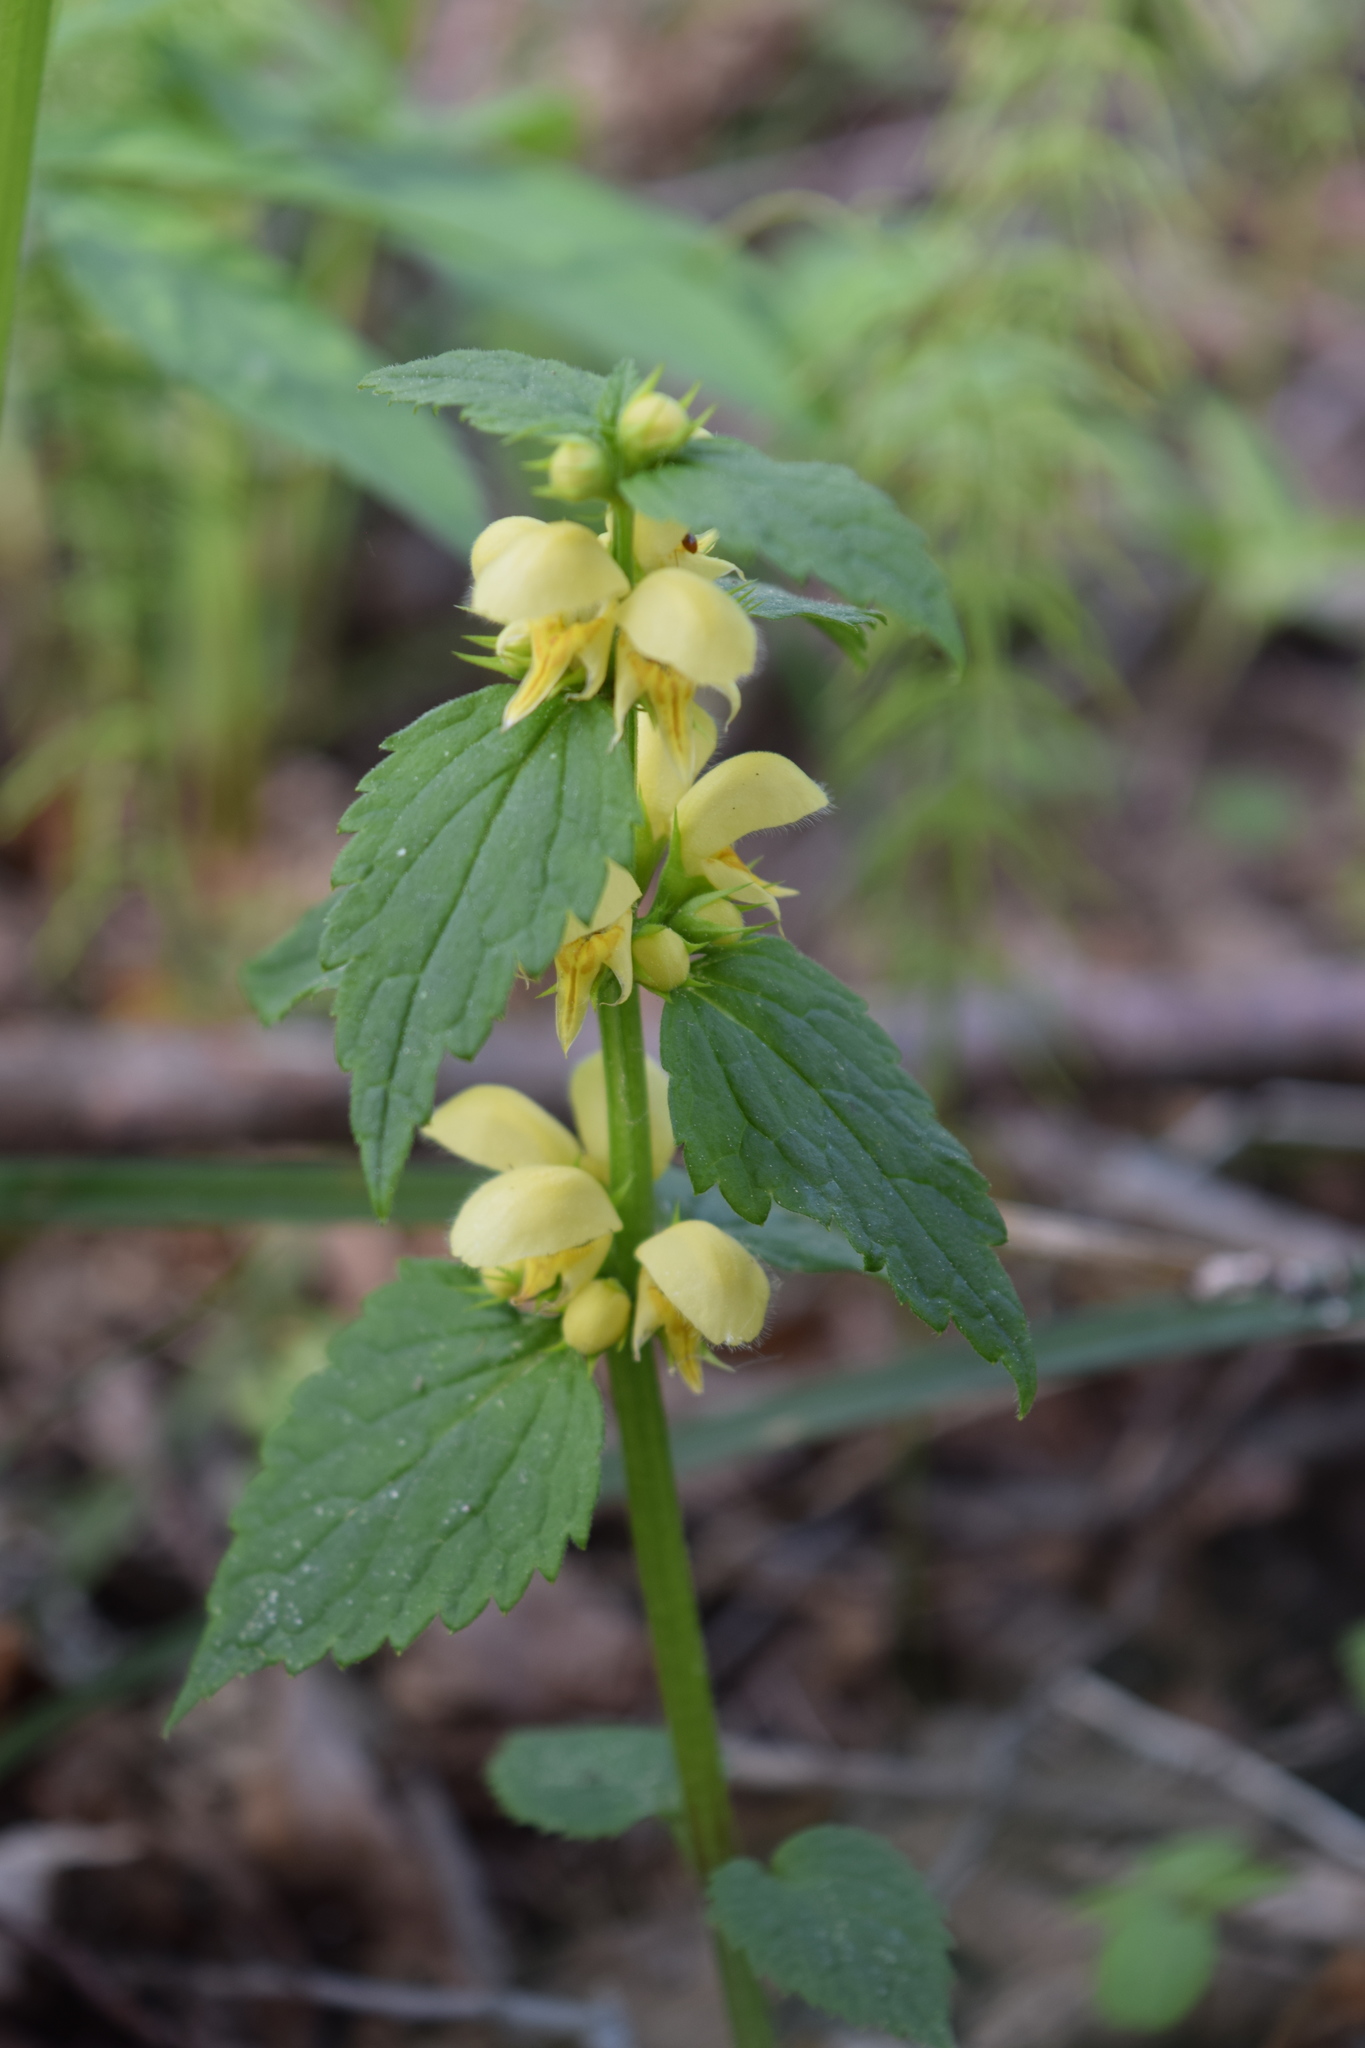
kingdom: Plantae
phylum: Tracheophyta
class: Magnoliopsida
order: Lamiales
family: Lamiaceae
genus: Lamium
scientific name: Lamium galeobdolon
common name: Yellow archangel
